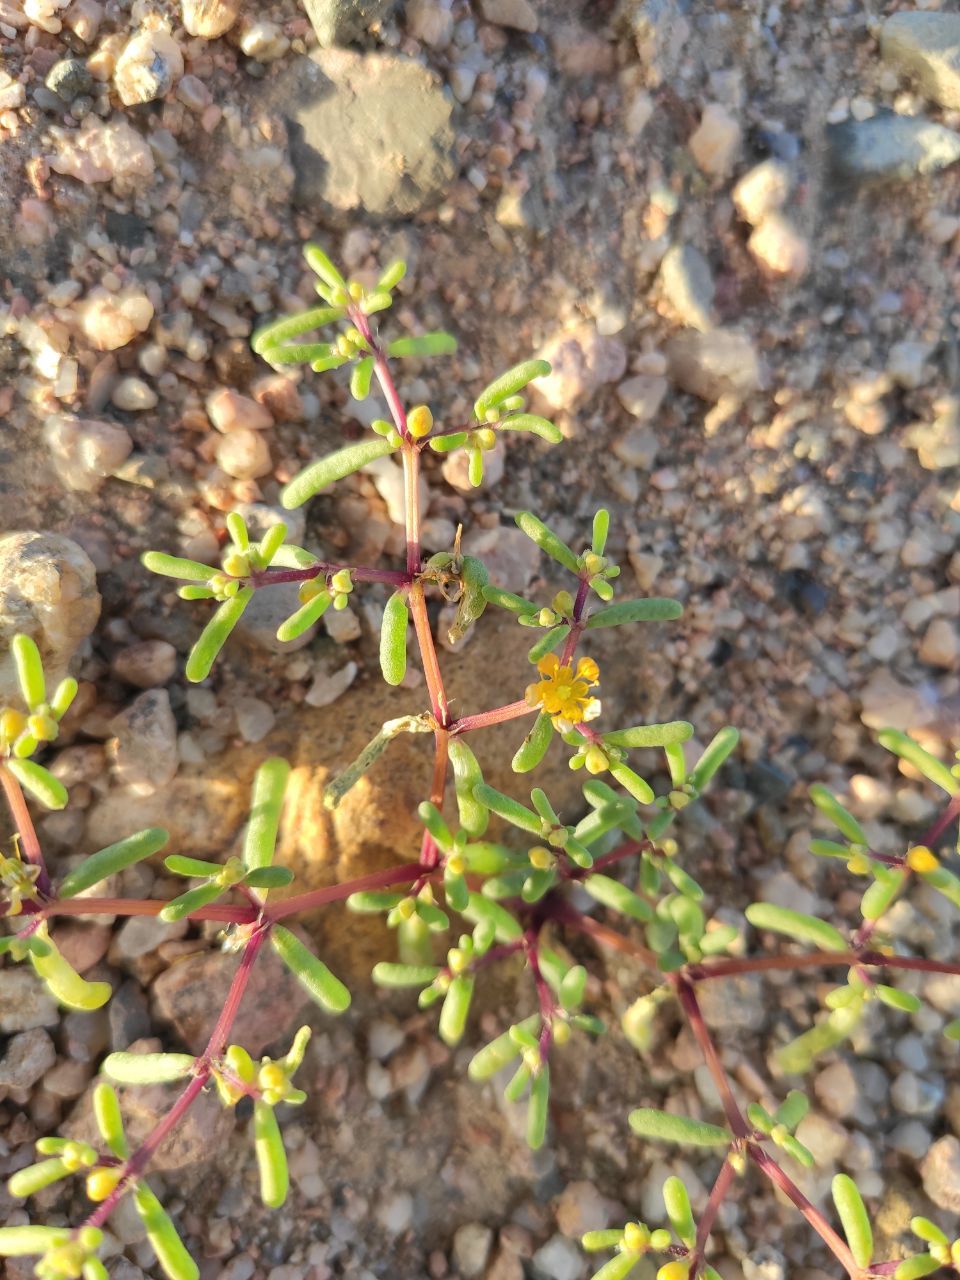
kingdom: Plantae
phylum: Tracheophyta
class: Magnoliopsida
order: Zygophyllales
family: Zygophyllaceae
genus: Tetraena
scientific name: Tetraena simplex
